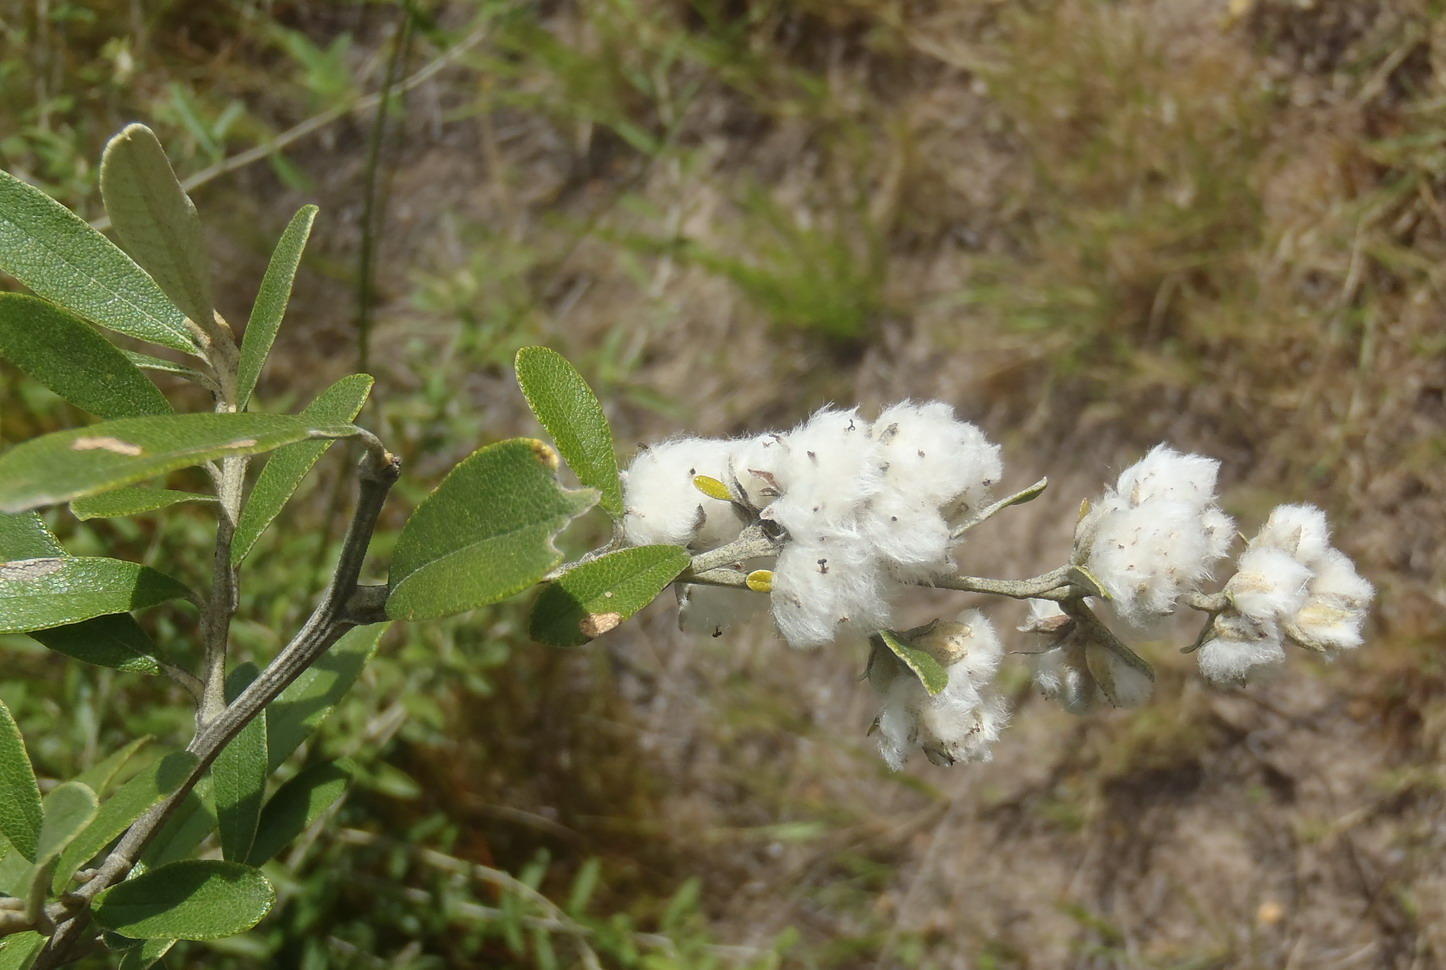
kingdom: Plantae
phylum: Tracheophyta
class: Magnoliopsida
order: Asterales
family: Asteraceae
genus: Tarchonanthus
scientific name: Tarchonanthus littoralis
